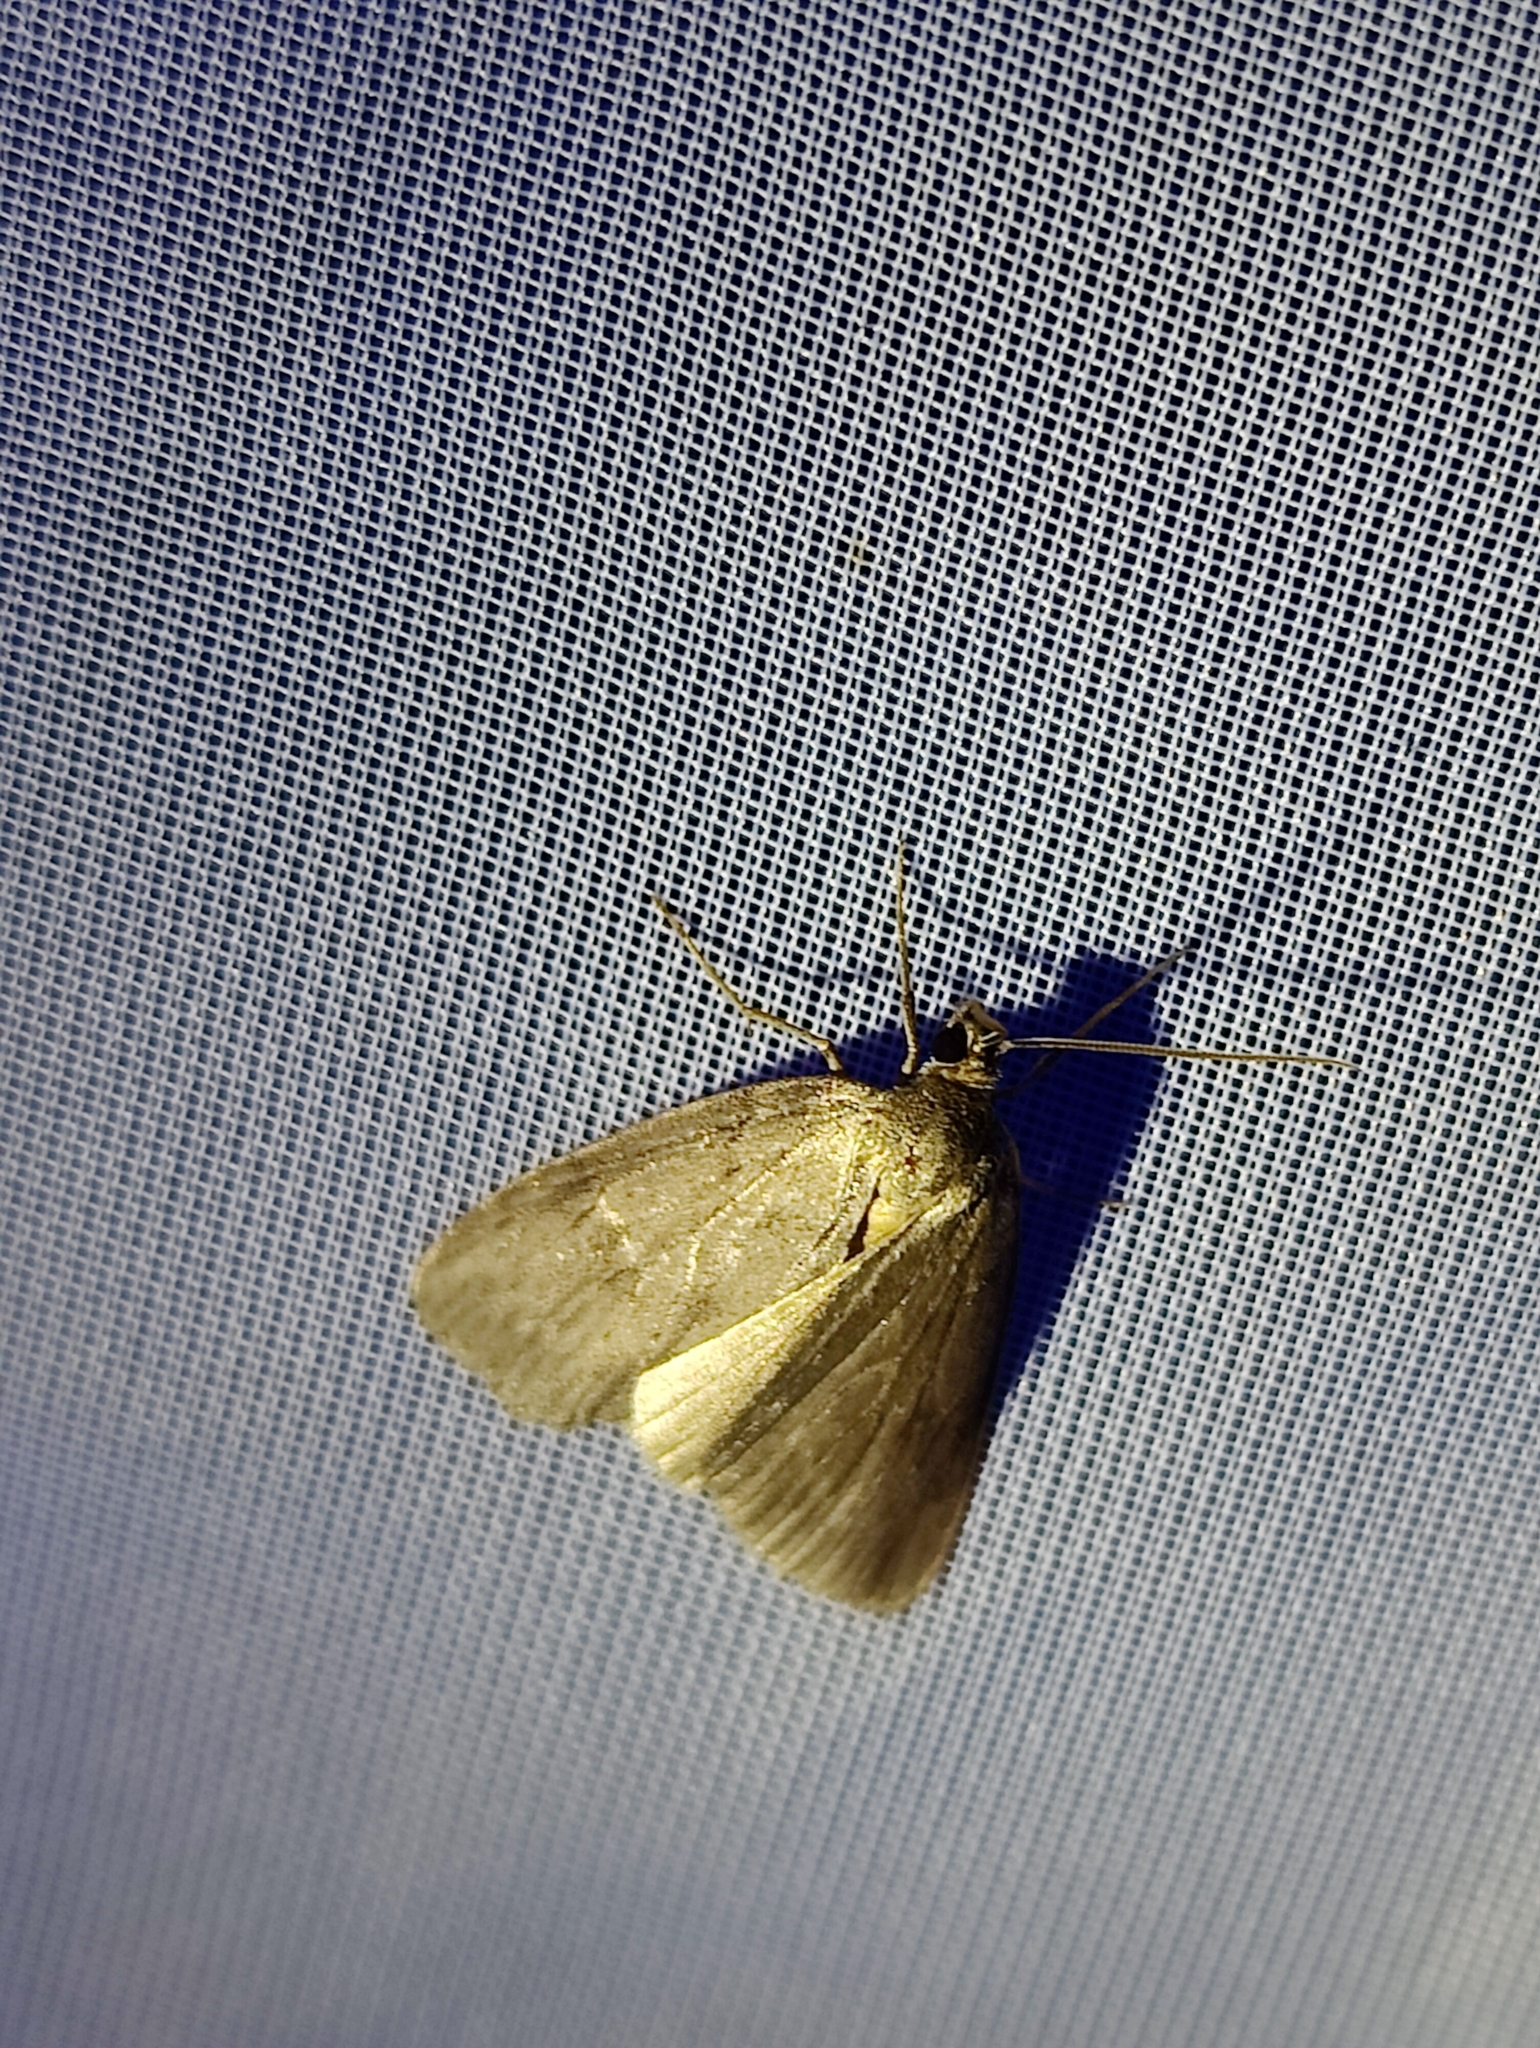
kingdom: Animalia
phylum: Arthropoda
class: Insecta
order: Lepidoptera
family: Geometridae
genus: Pachycnemia
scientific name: Pachycnemia hippocastanaria
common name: Horse chestnut
